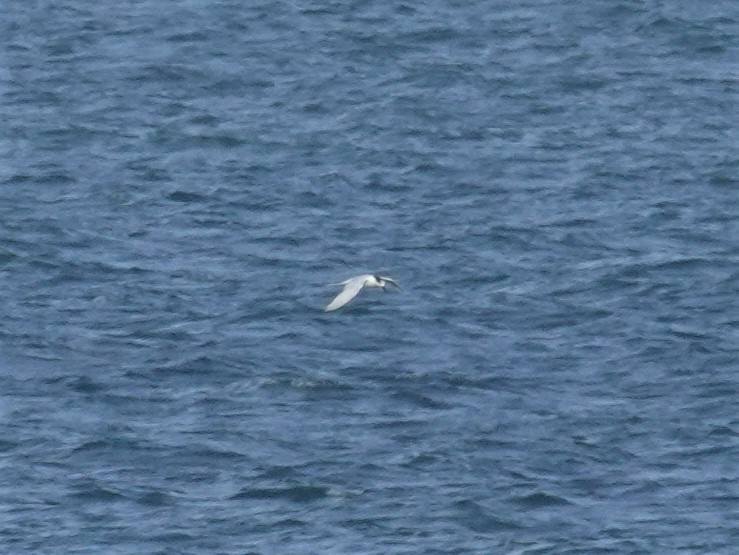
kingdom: Animalia
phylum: Chordata
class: Aves
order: Charadriiformes
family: Laridae
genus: Sterna
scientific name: Sterna striata
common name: White-fronted tern
